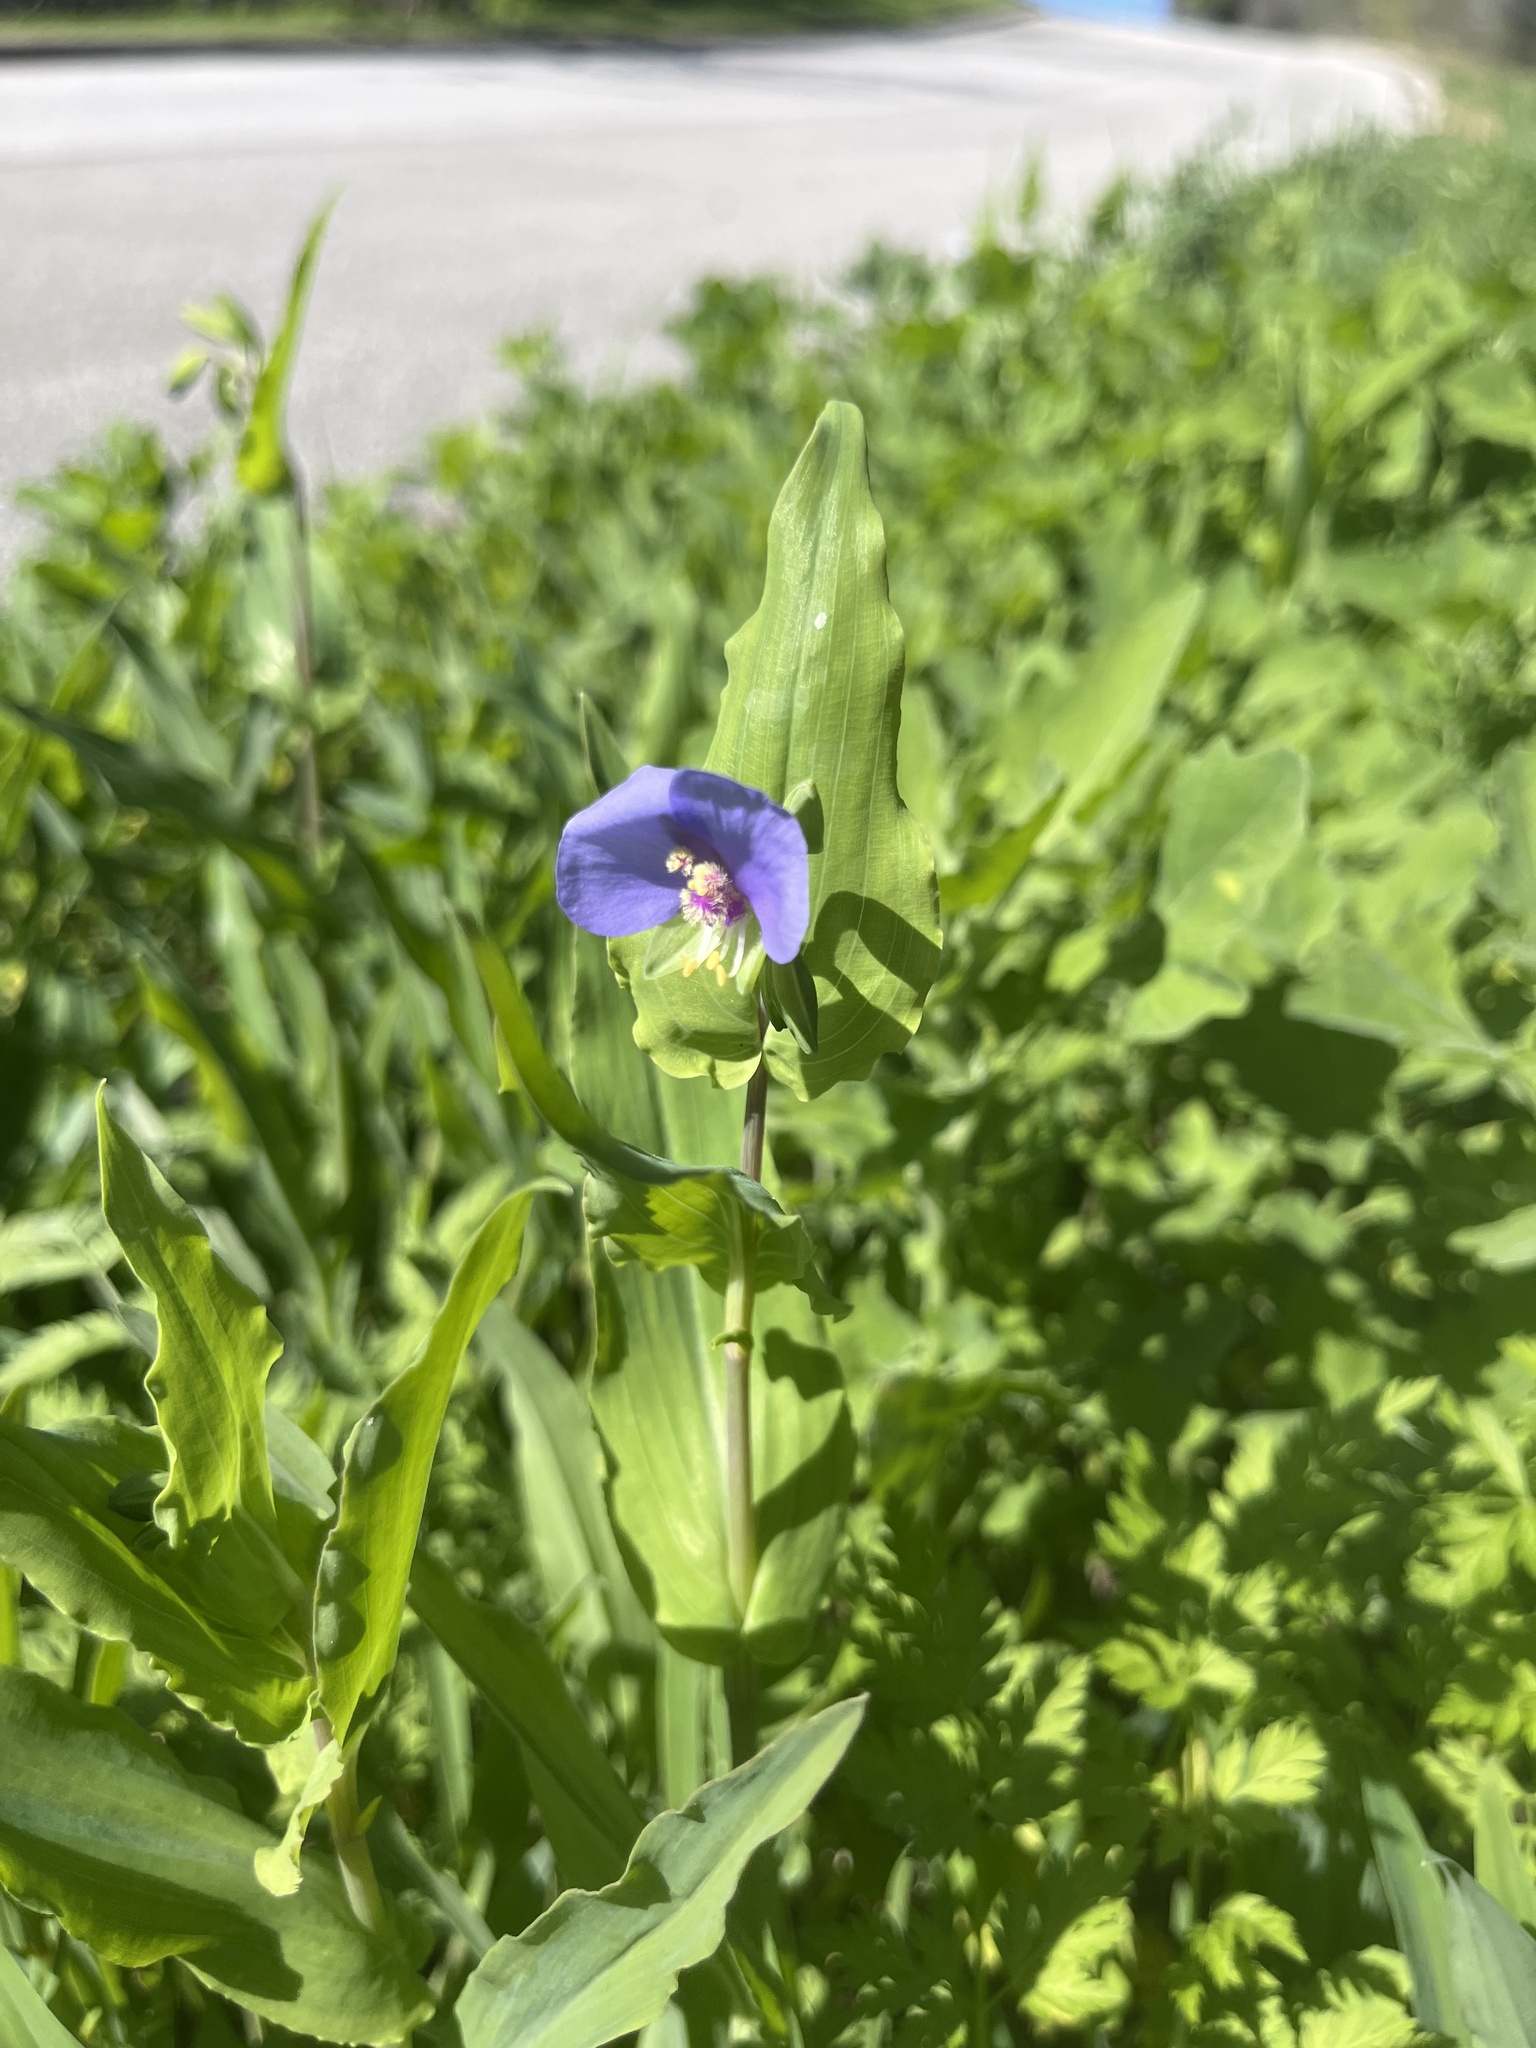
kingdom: Plantae
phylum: Tracheophyta
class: Liliopsida
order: Commelinales
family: Commelinaceae
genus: Tinantia
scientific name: Tinantia anomala
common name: False dayflower
